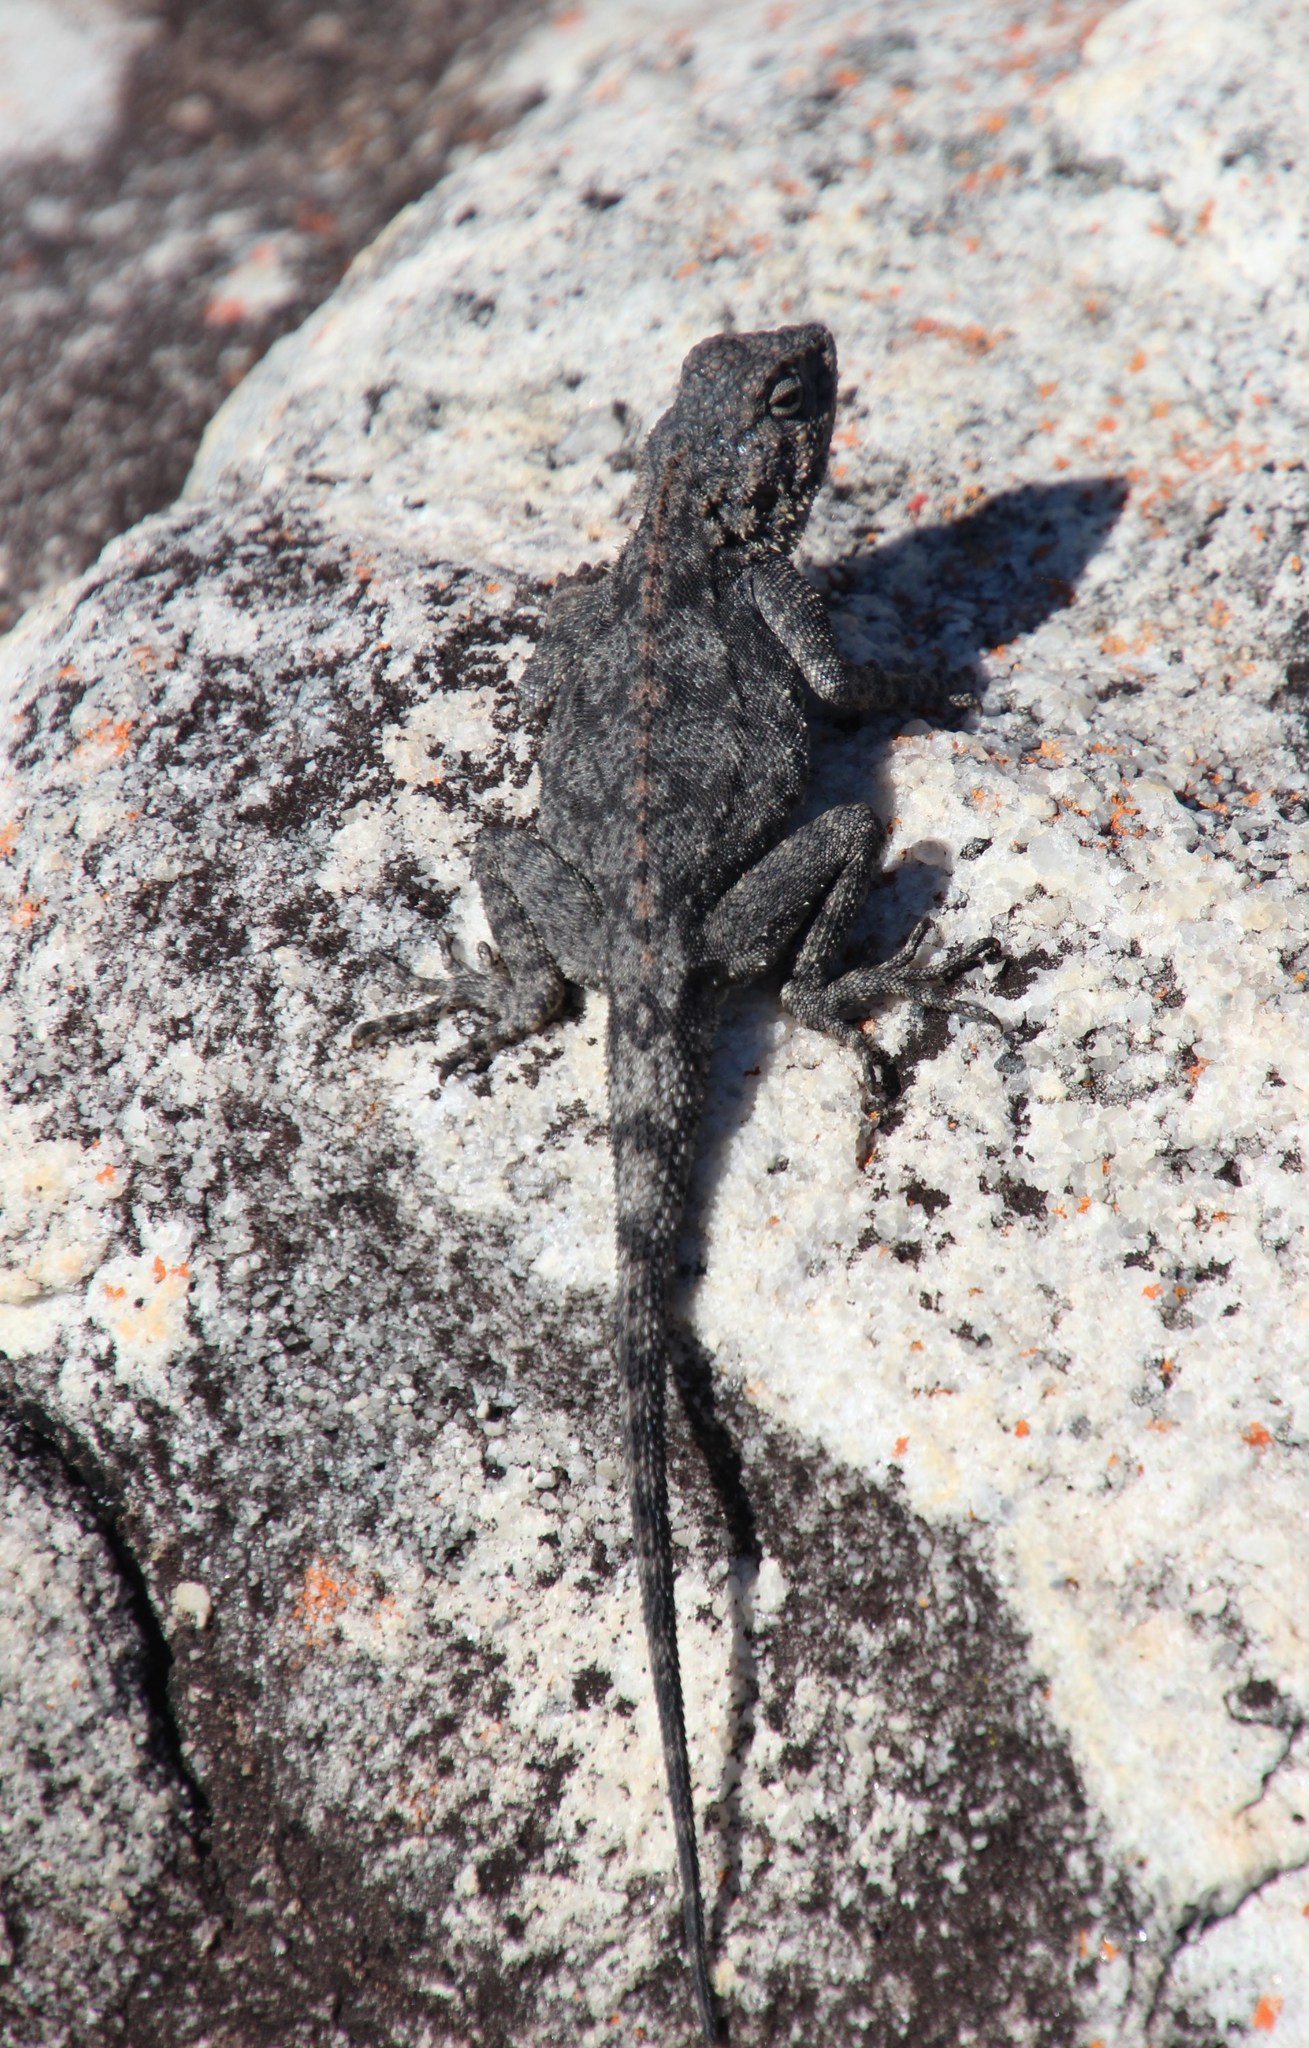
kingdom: Animalia
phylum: Chordata
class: Squamata
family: Agamidae
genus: Agama
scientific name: Agama atra
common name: Southern african rock agama
